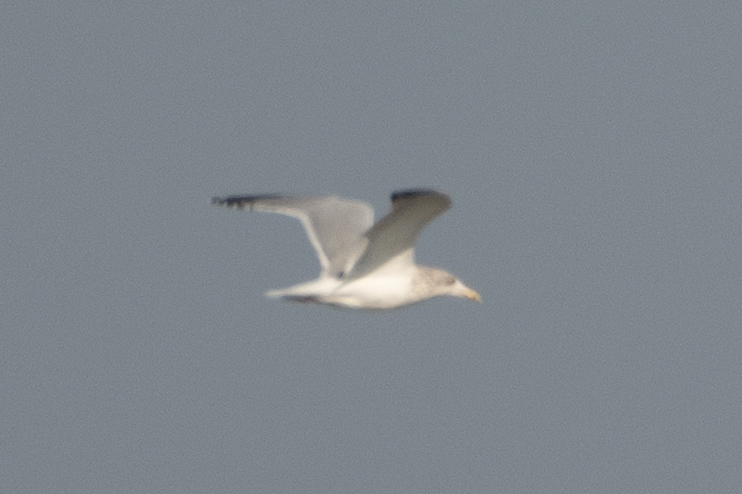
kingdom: Animalia
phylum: Chordata
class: Aves
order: Charadriiformes
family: Laridae
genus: Larus
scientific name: Larus argentatus
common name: Herring gull
